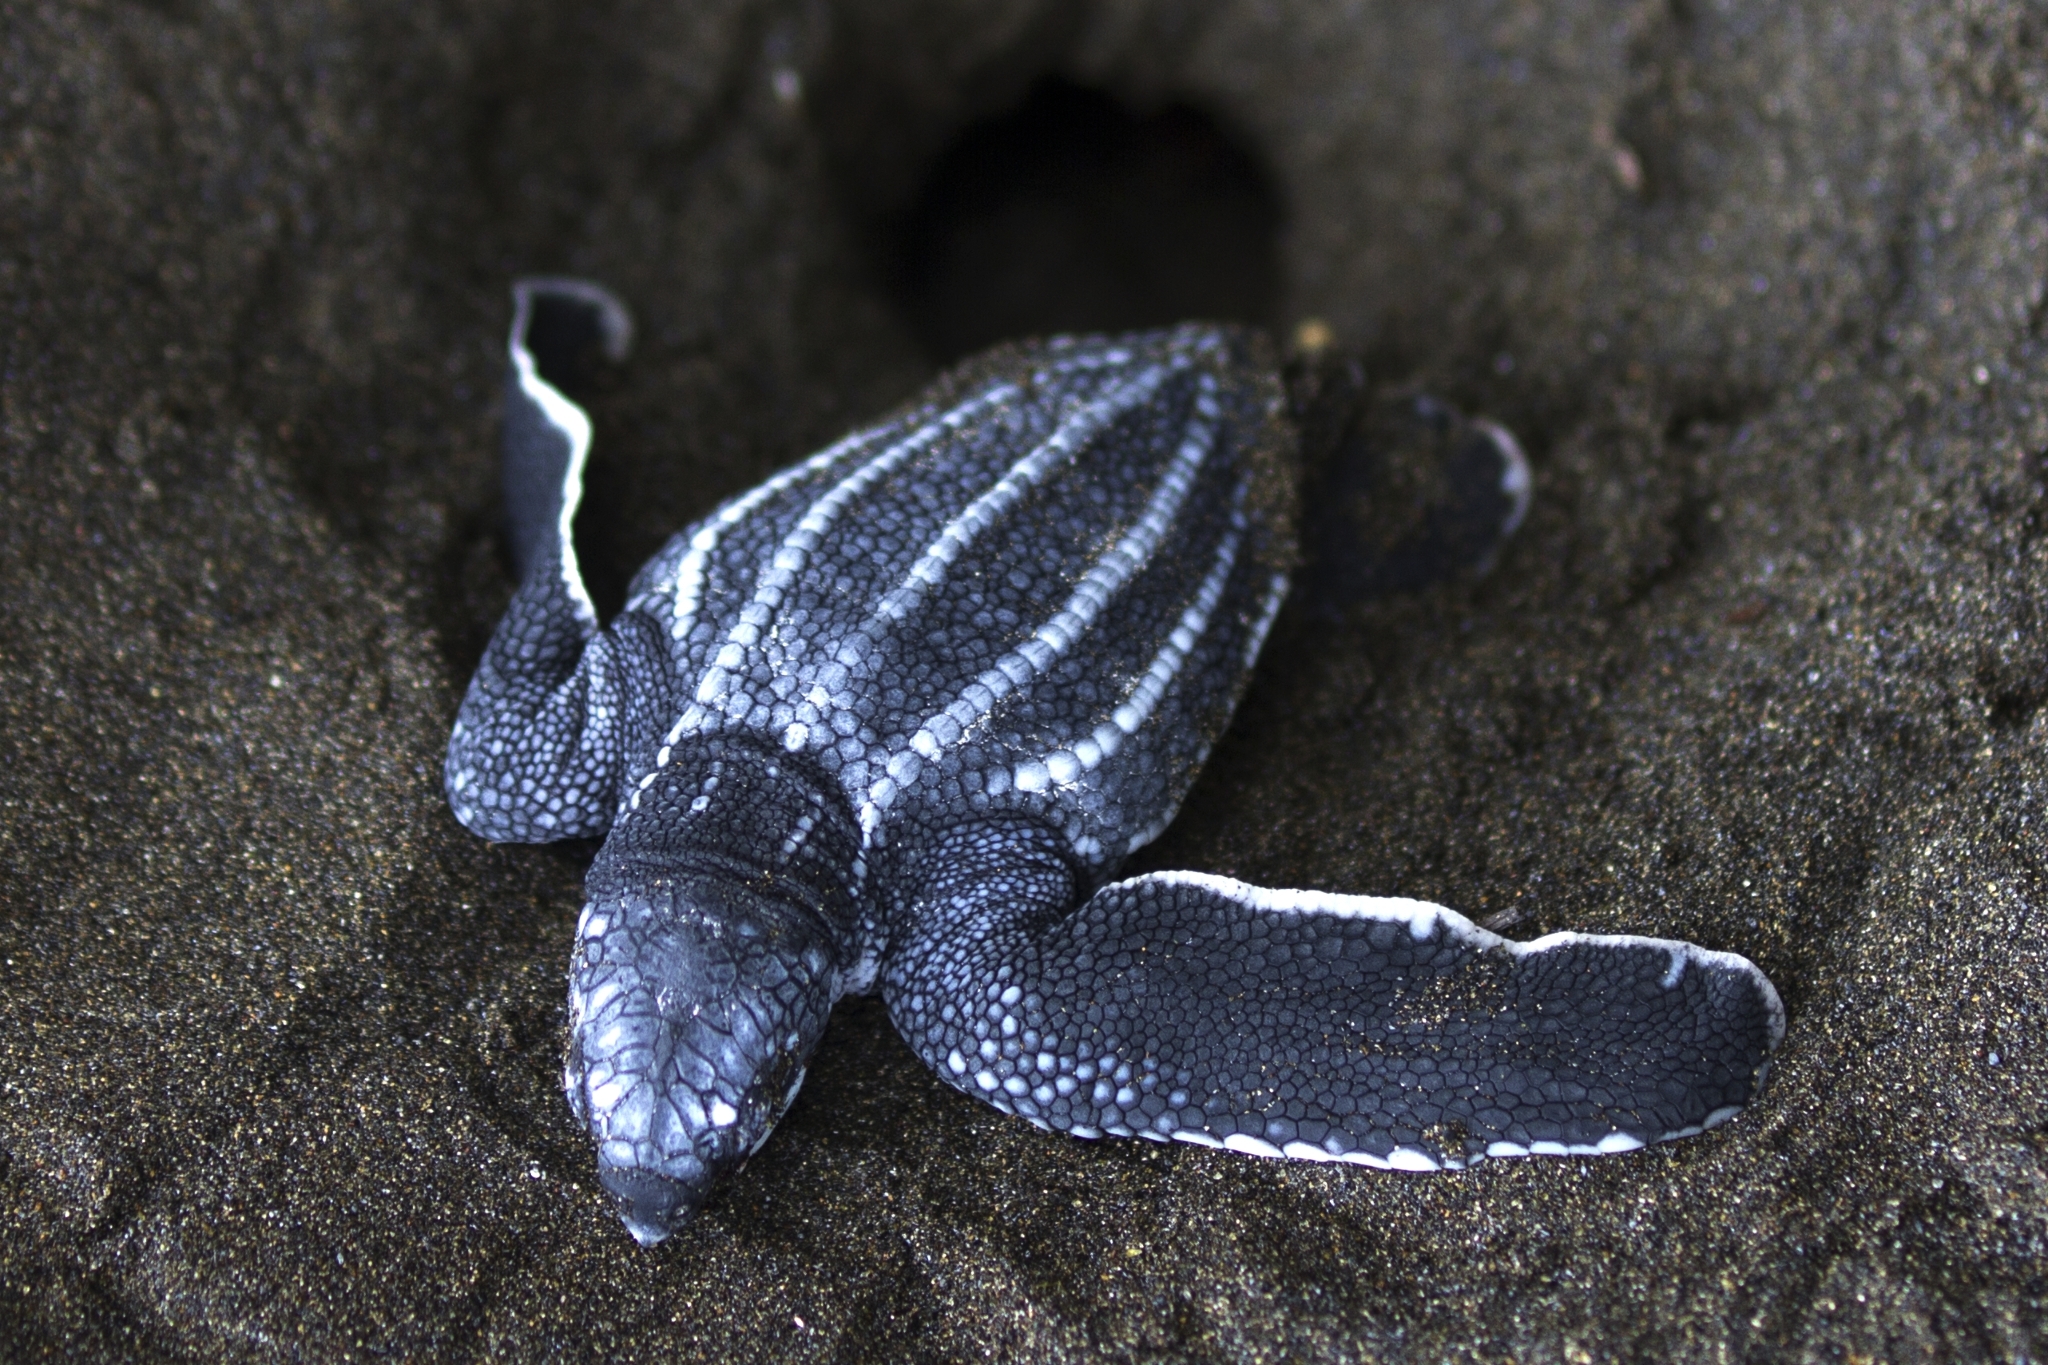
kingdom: Animalia
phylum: Chordata
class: Testudines
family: Dermochelyidae
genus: Dermochelys
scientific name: Dermochelys coriacea
